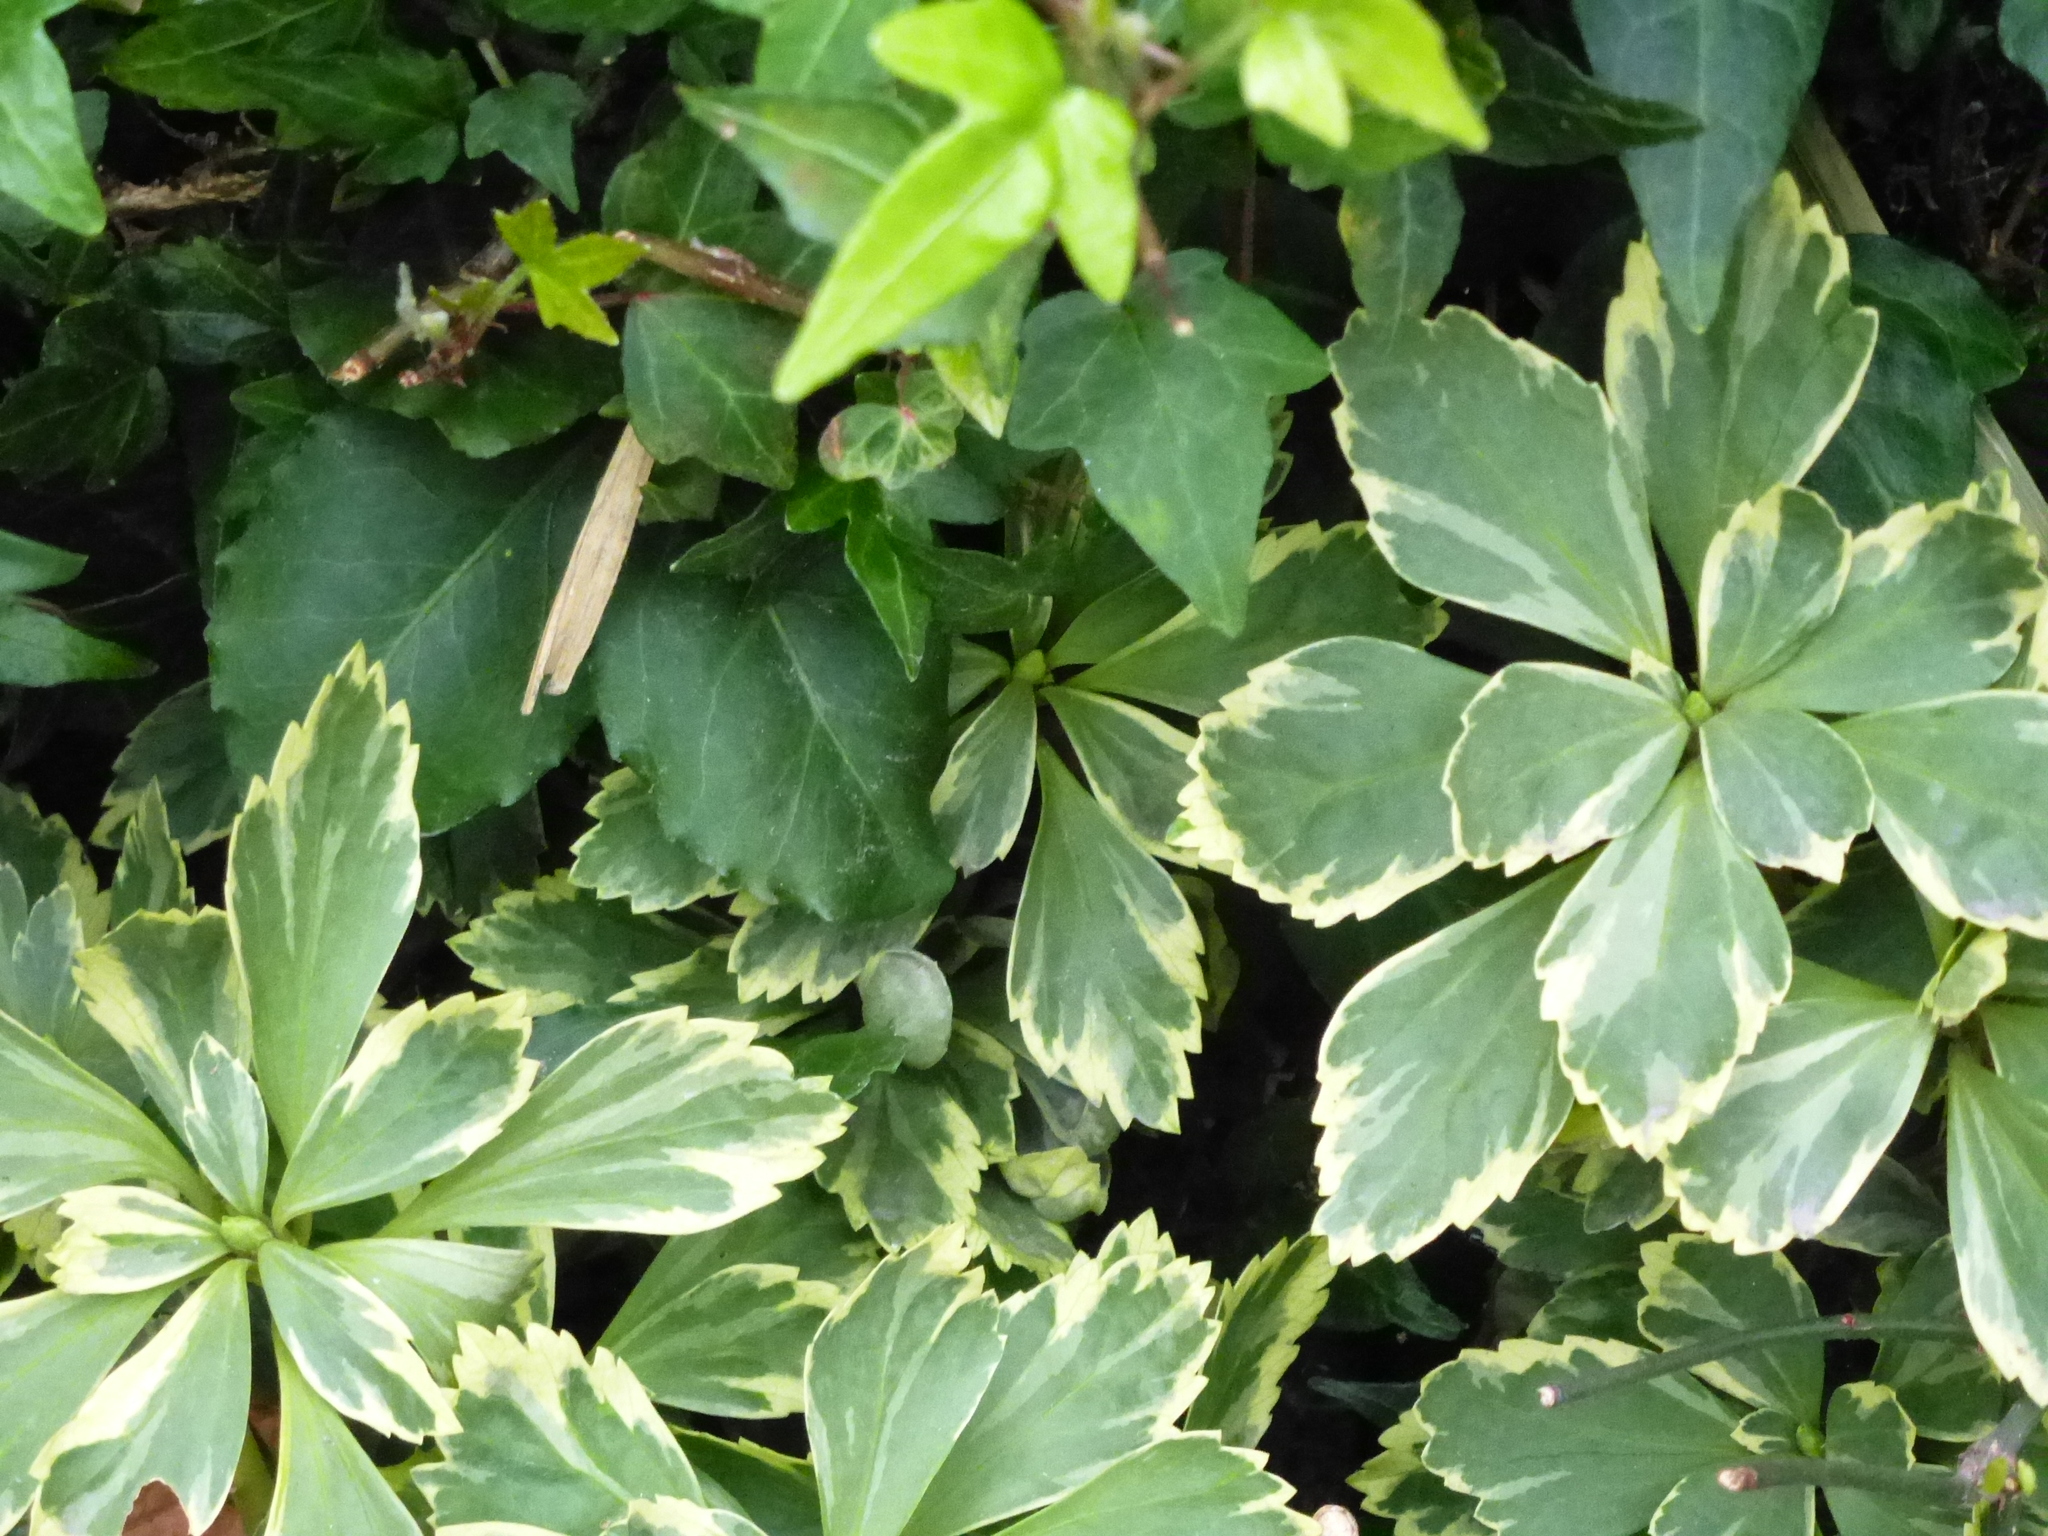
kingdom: Plantae
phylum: Tracheophyta
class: Magnoliopsida
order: Buxales
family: Buxaceae
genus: Pachysandra
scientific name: Pachysandra terminalis
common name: Japanese pachysandra
